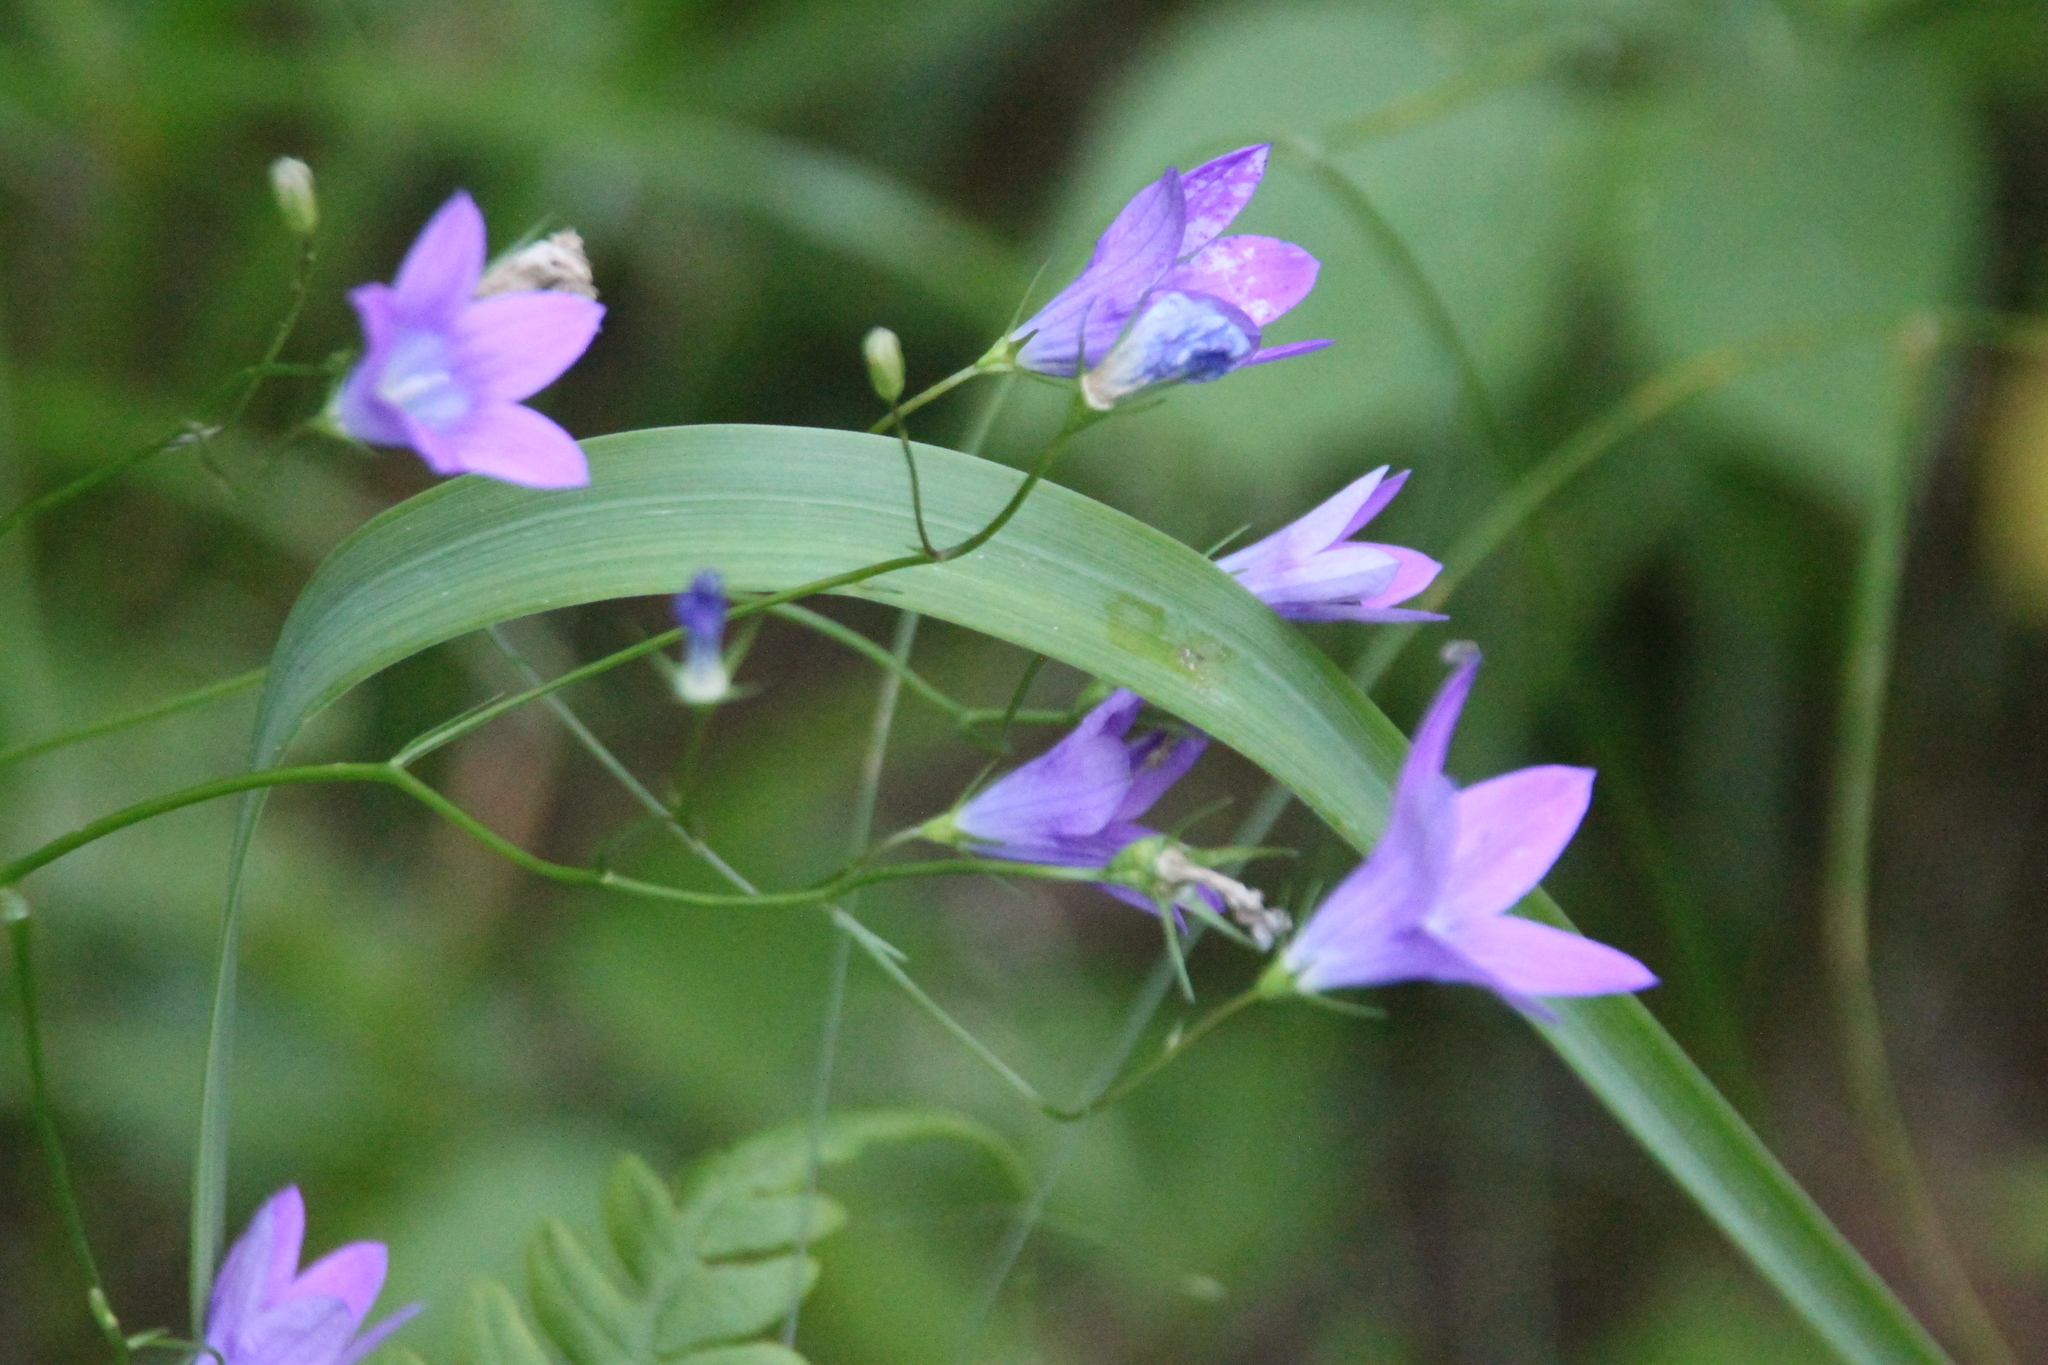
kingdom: Plantae
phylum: Tracheophyta
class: Magnoliopsida
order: Asterales
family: Campanulaceae
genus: Campanula
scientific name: Campanula patula
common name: Spreading bellflower
